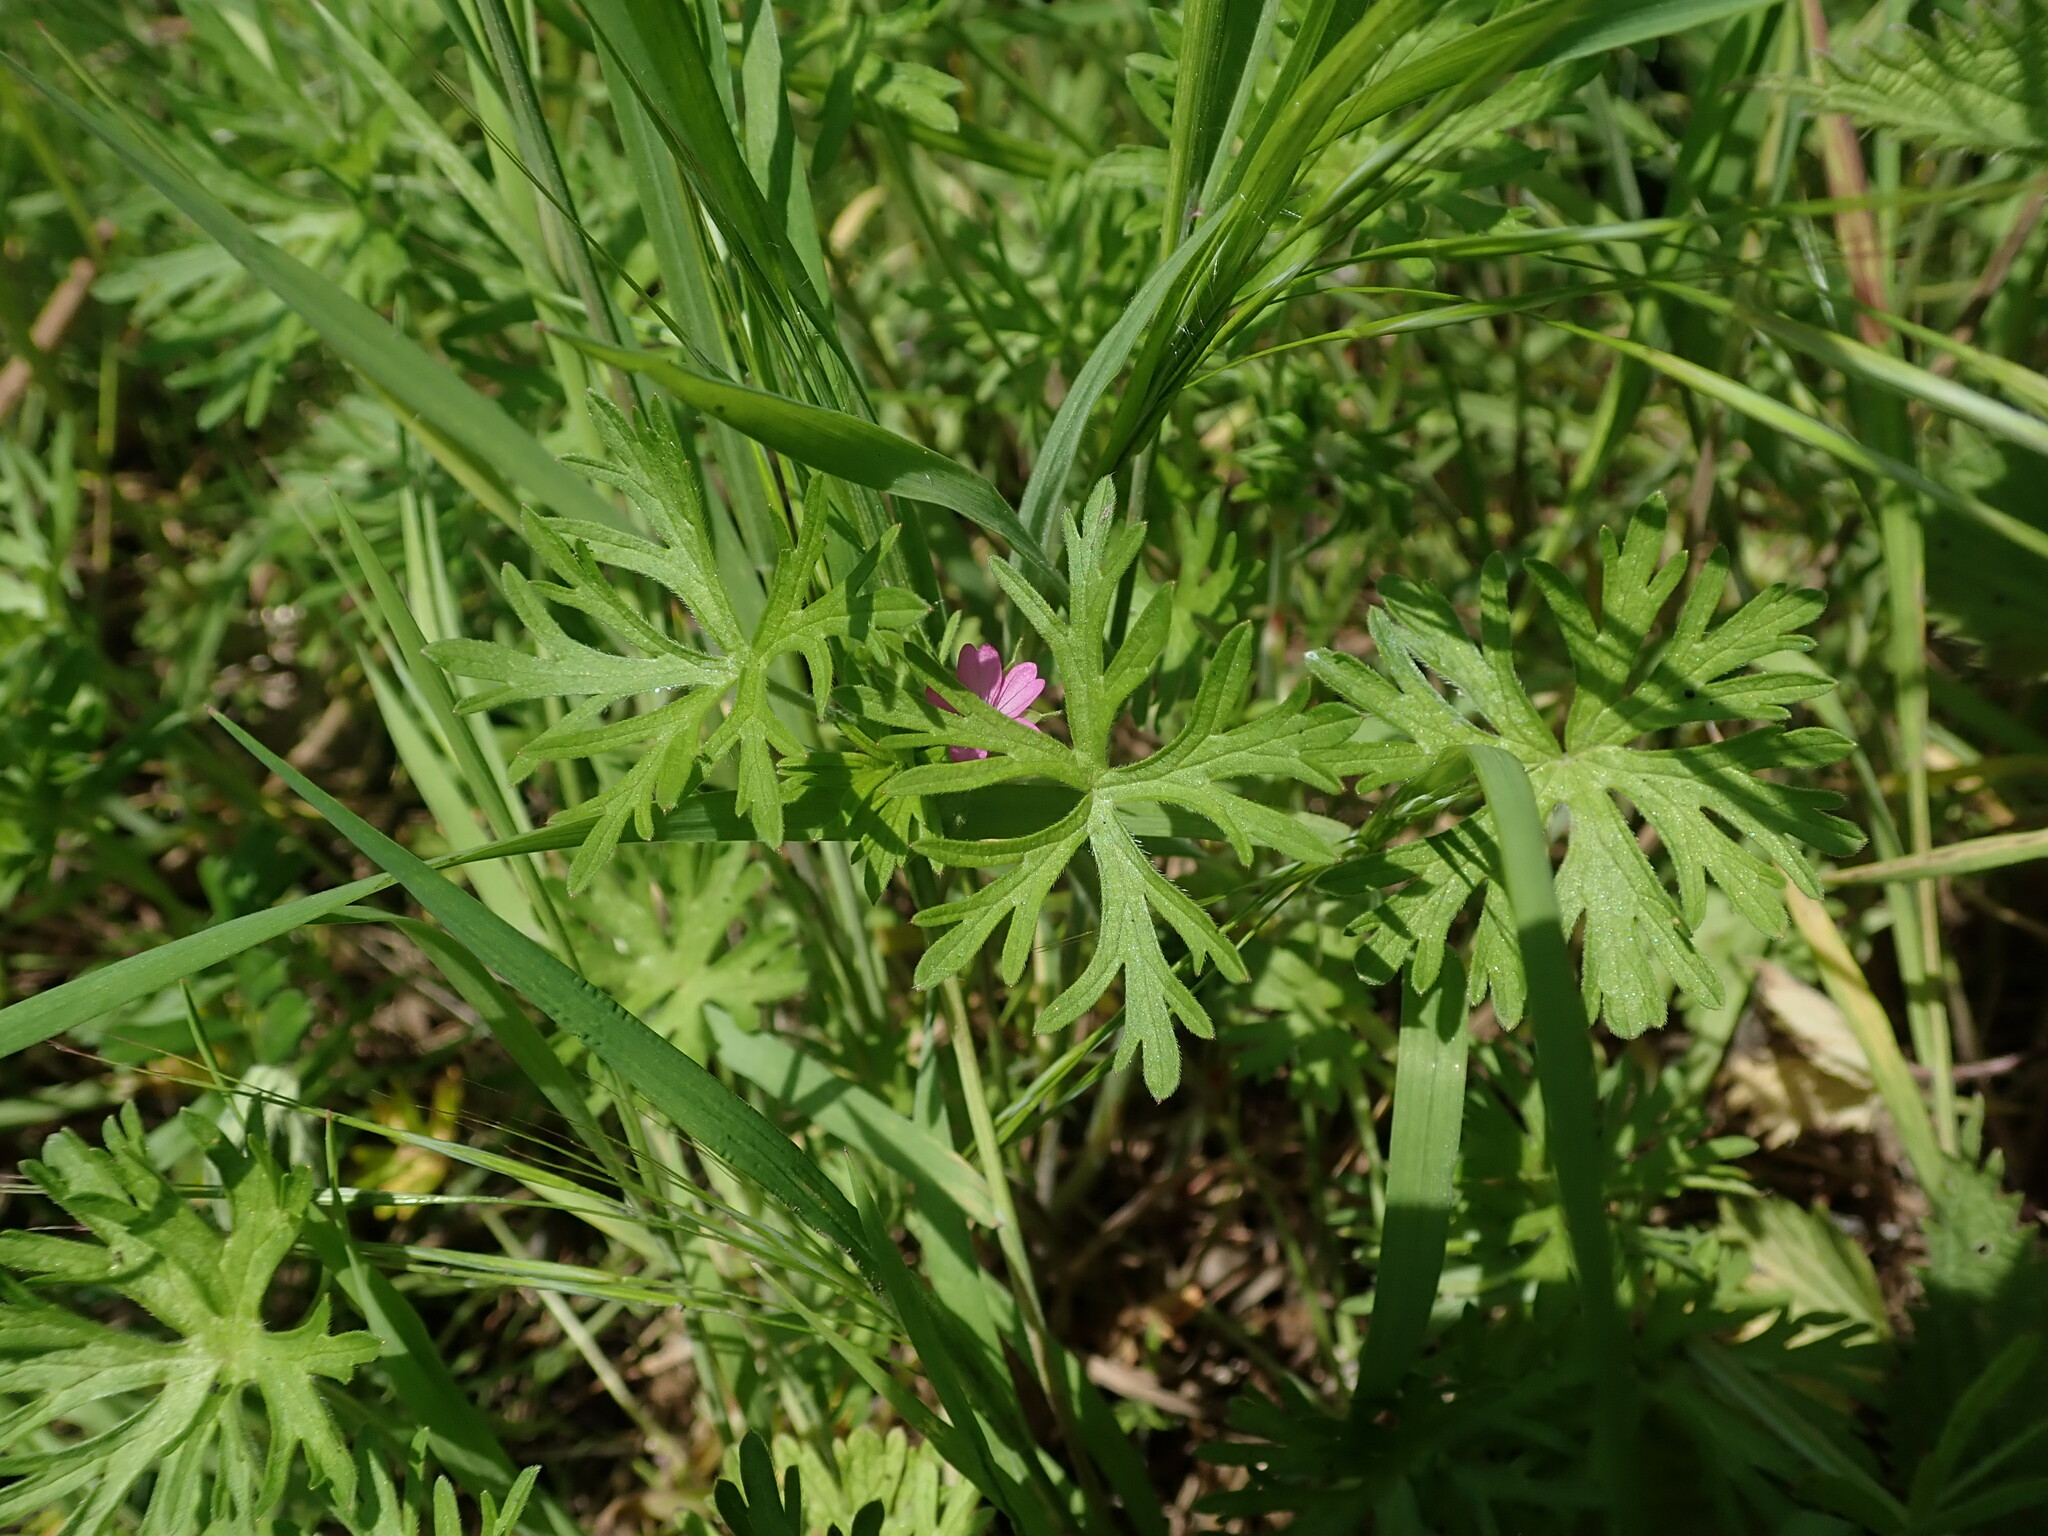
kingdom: Plantae
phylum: Tracheophyta
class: Magnoliopsida
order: Geraniales
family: Geraniaceae
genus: Geranium
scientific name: Geranium dissectum
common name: Cut-leaved crane's-bill
